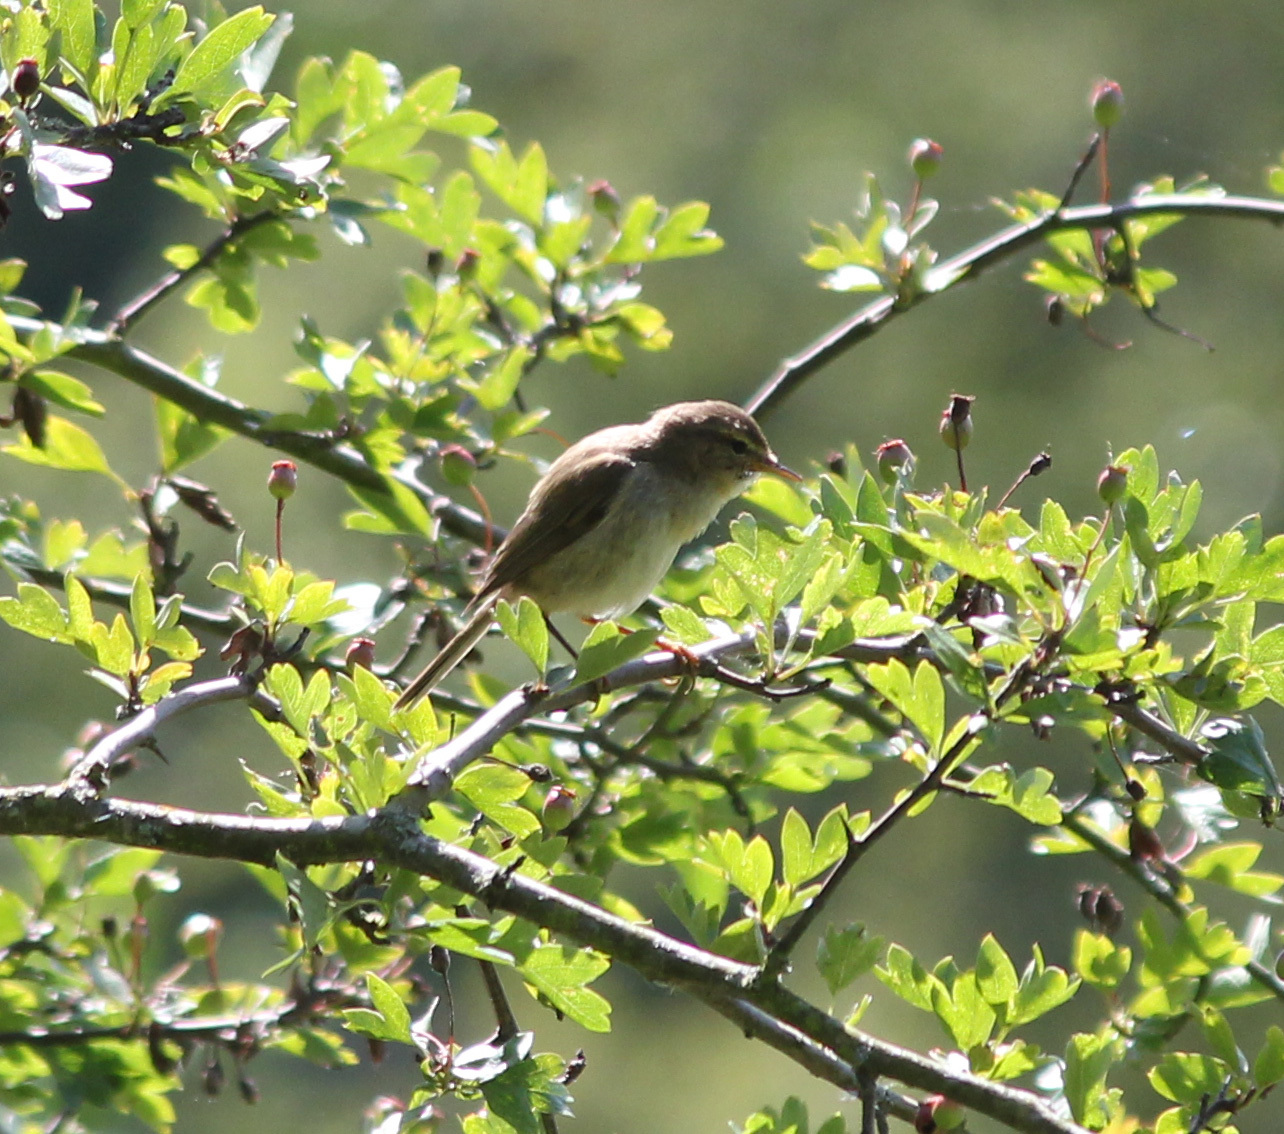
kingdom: Animalia
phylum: Chordata
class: Aves
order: Passeriformes
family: Phylloscopidae
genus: Phylloscopus
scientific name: Phylloscopus trochilus
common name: Willow warbler
